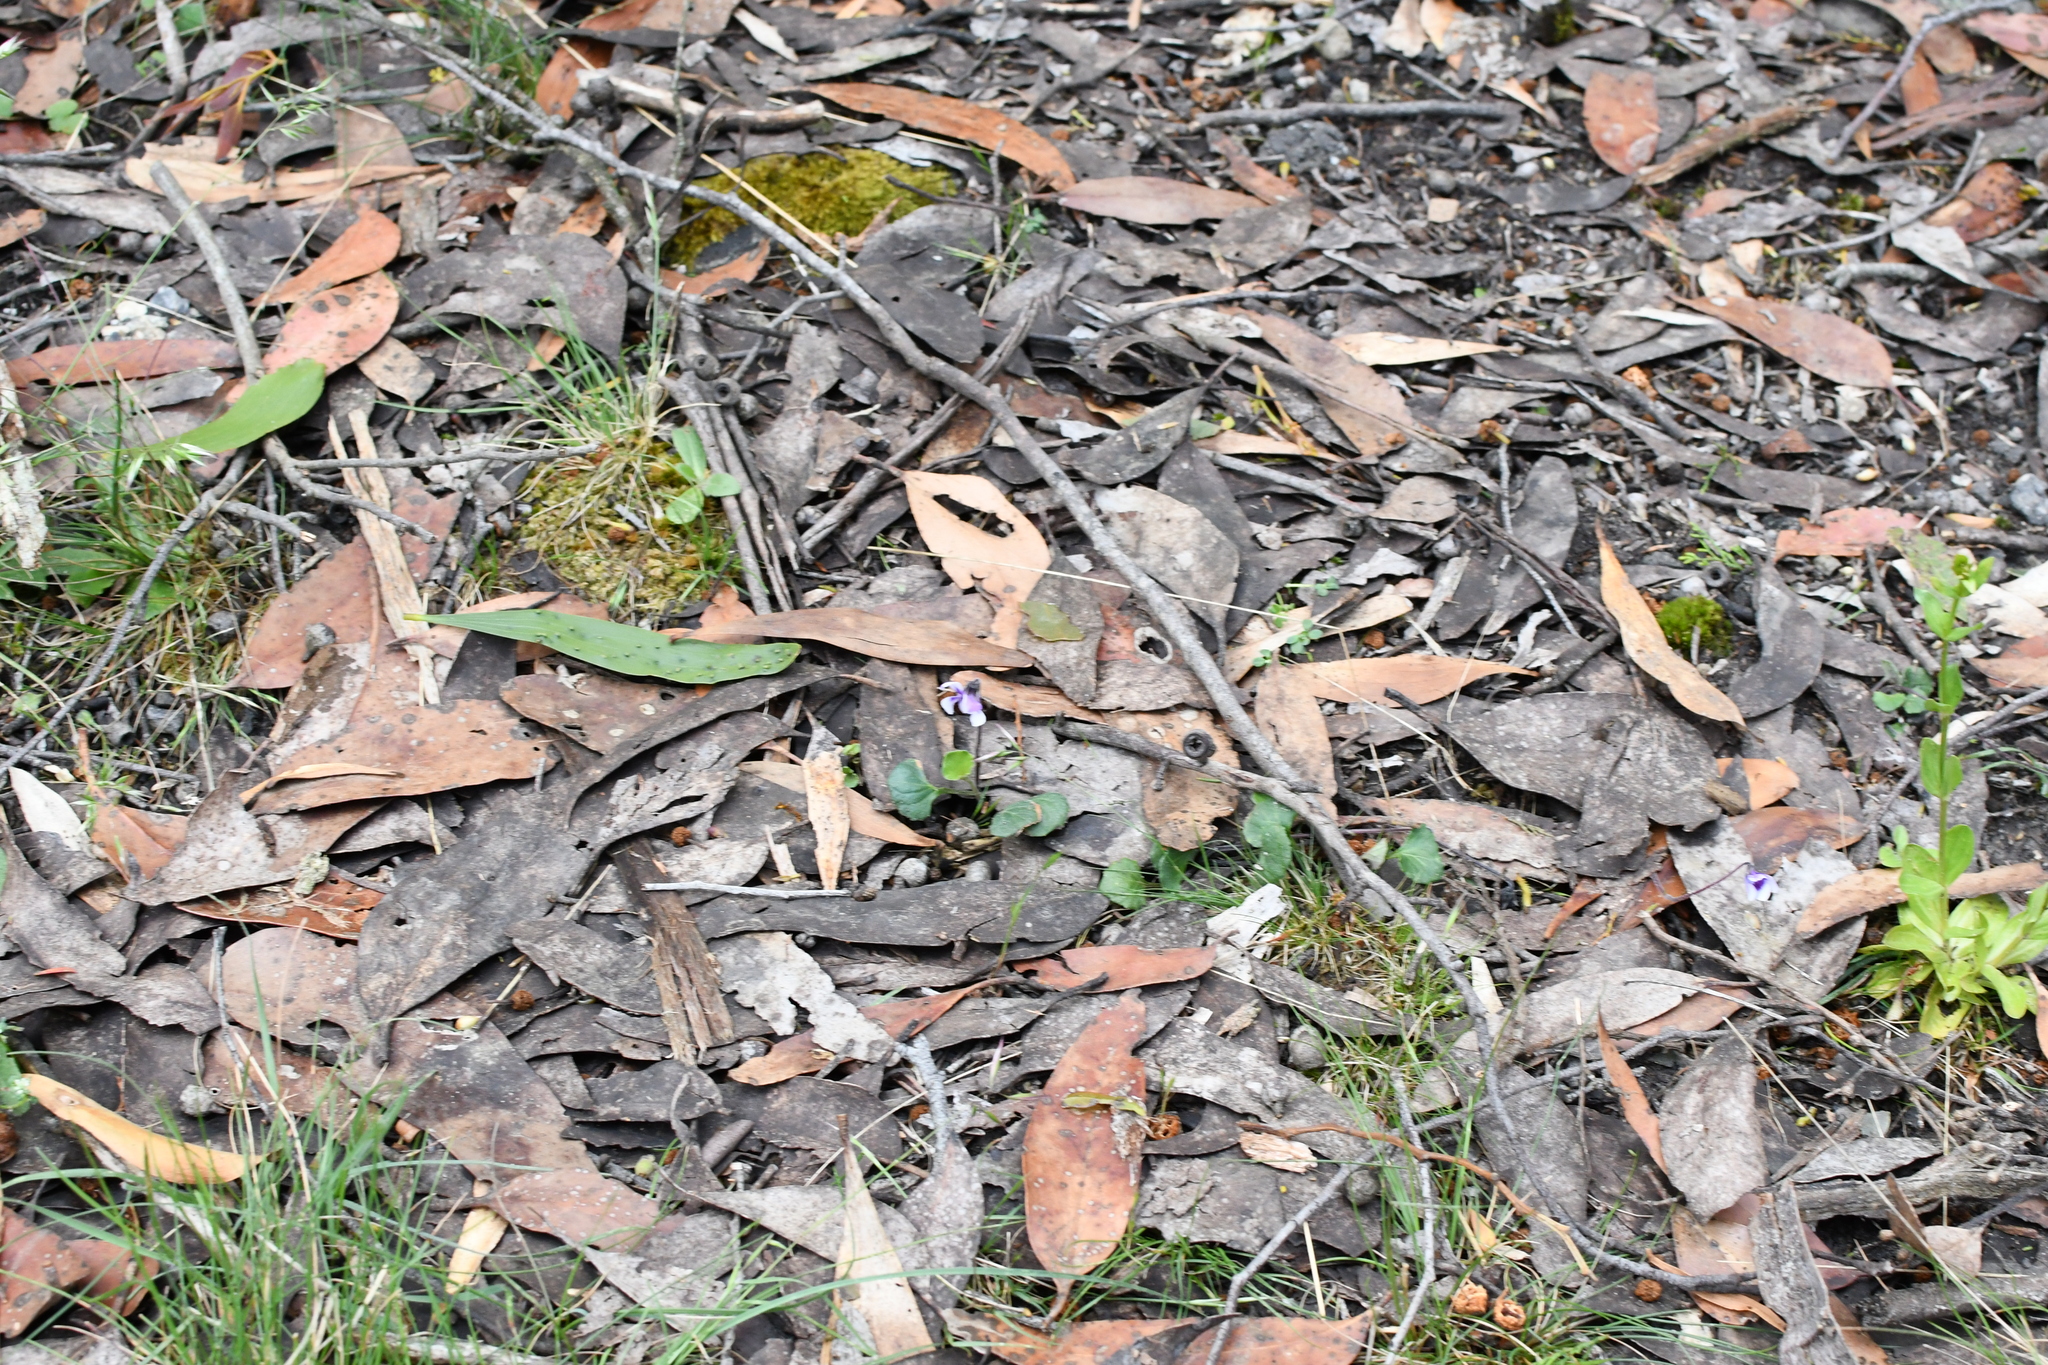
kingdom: Plantae
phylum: Tracheophyta
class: Magnoliopsida
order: Malpighiales
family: Violaceae
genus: Viola
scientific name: Viola hederacea
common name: Australian violet
